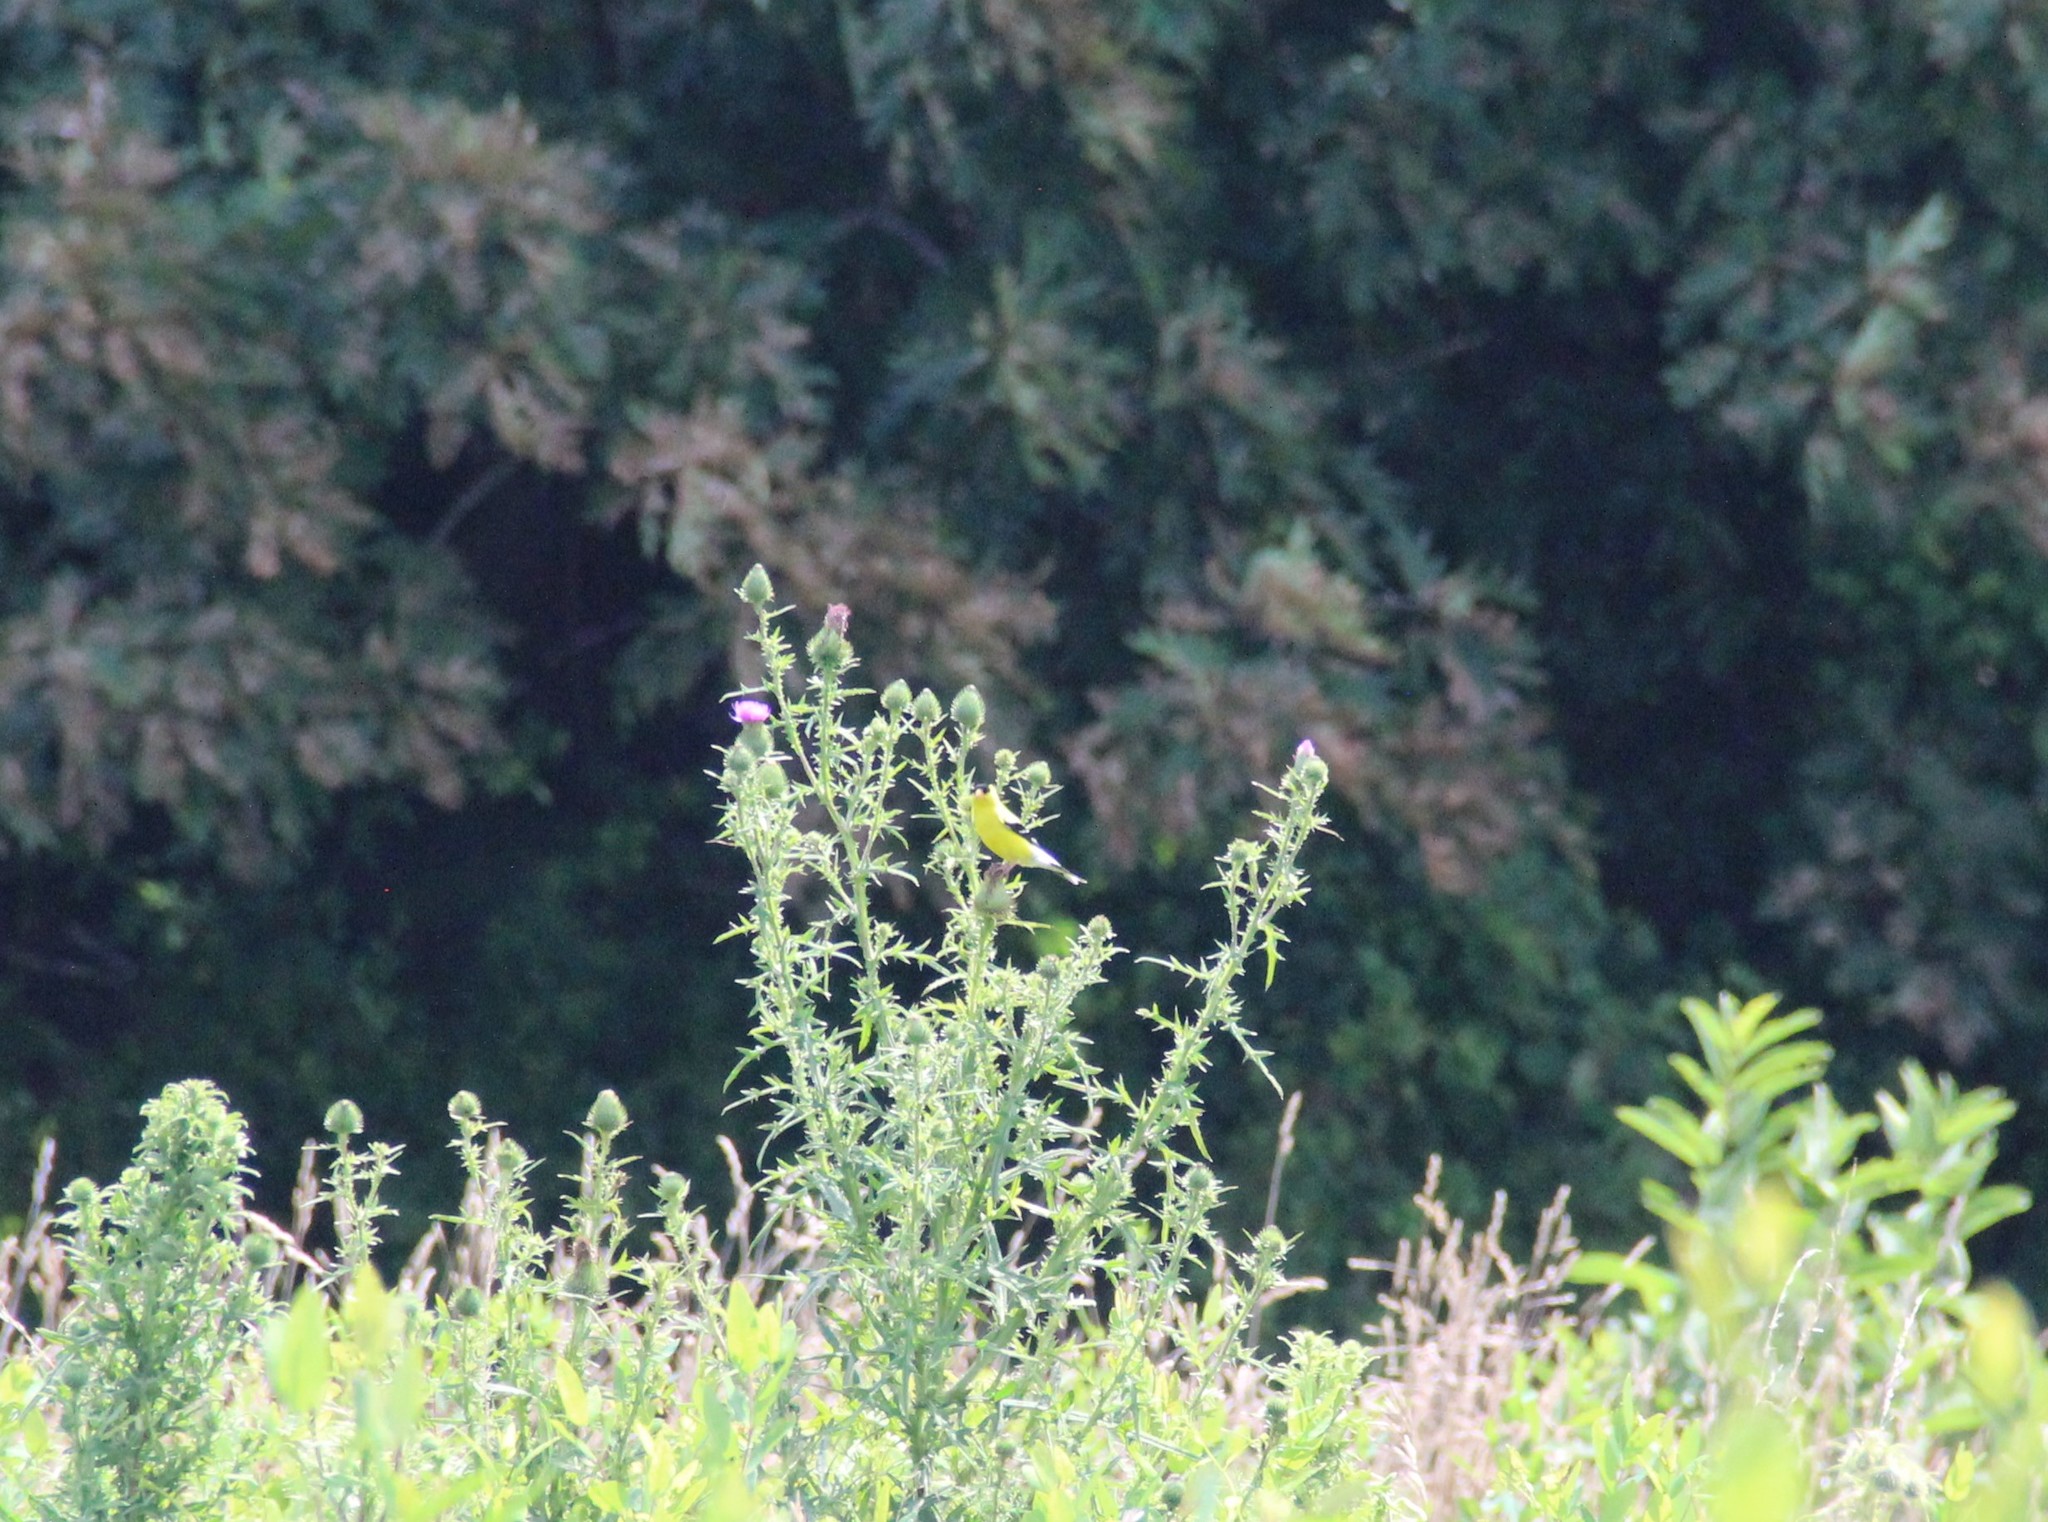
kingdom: Animalia
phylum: Chordata
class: Aves
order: Passeriformes
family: Fringillidae
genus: Spinus
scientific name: Spinus tristis
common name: American goldfinch
